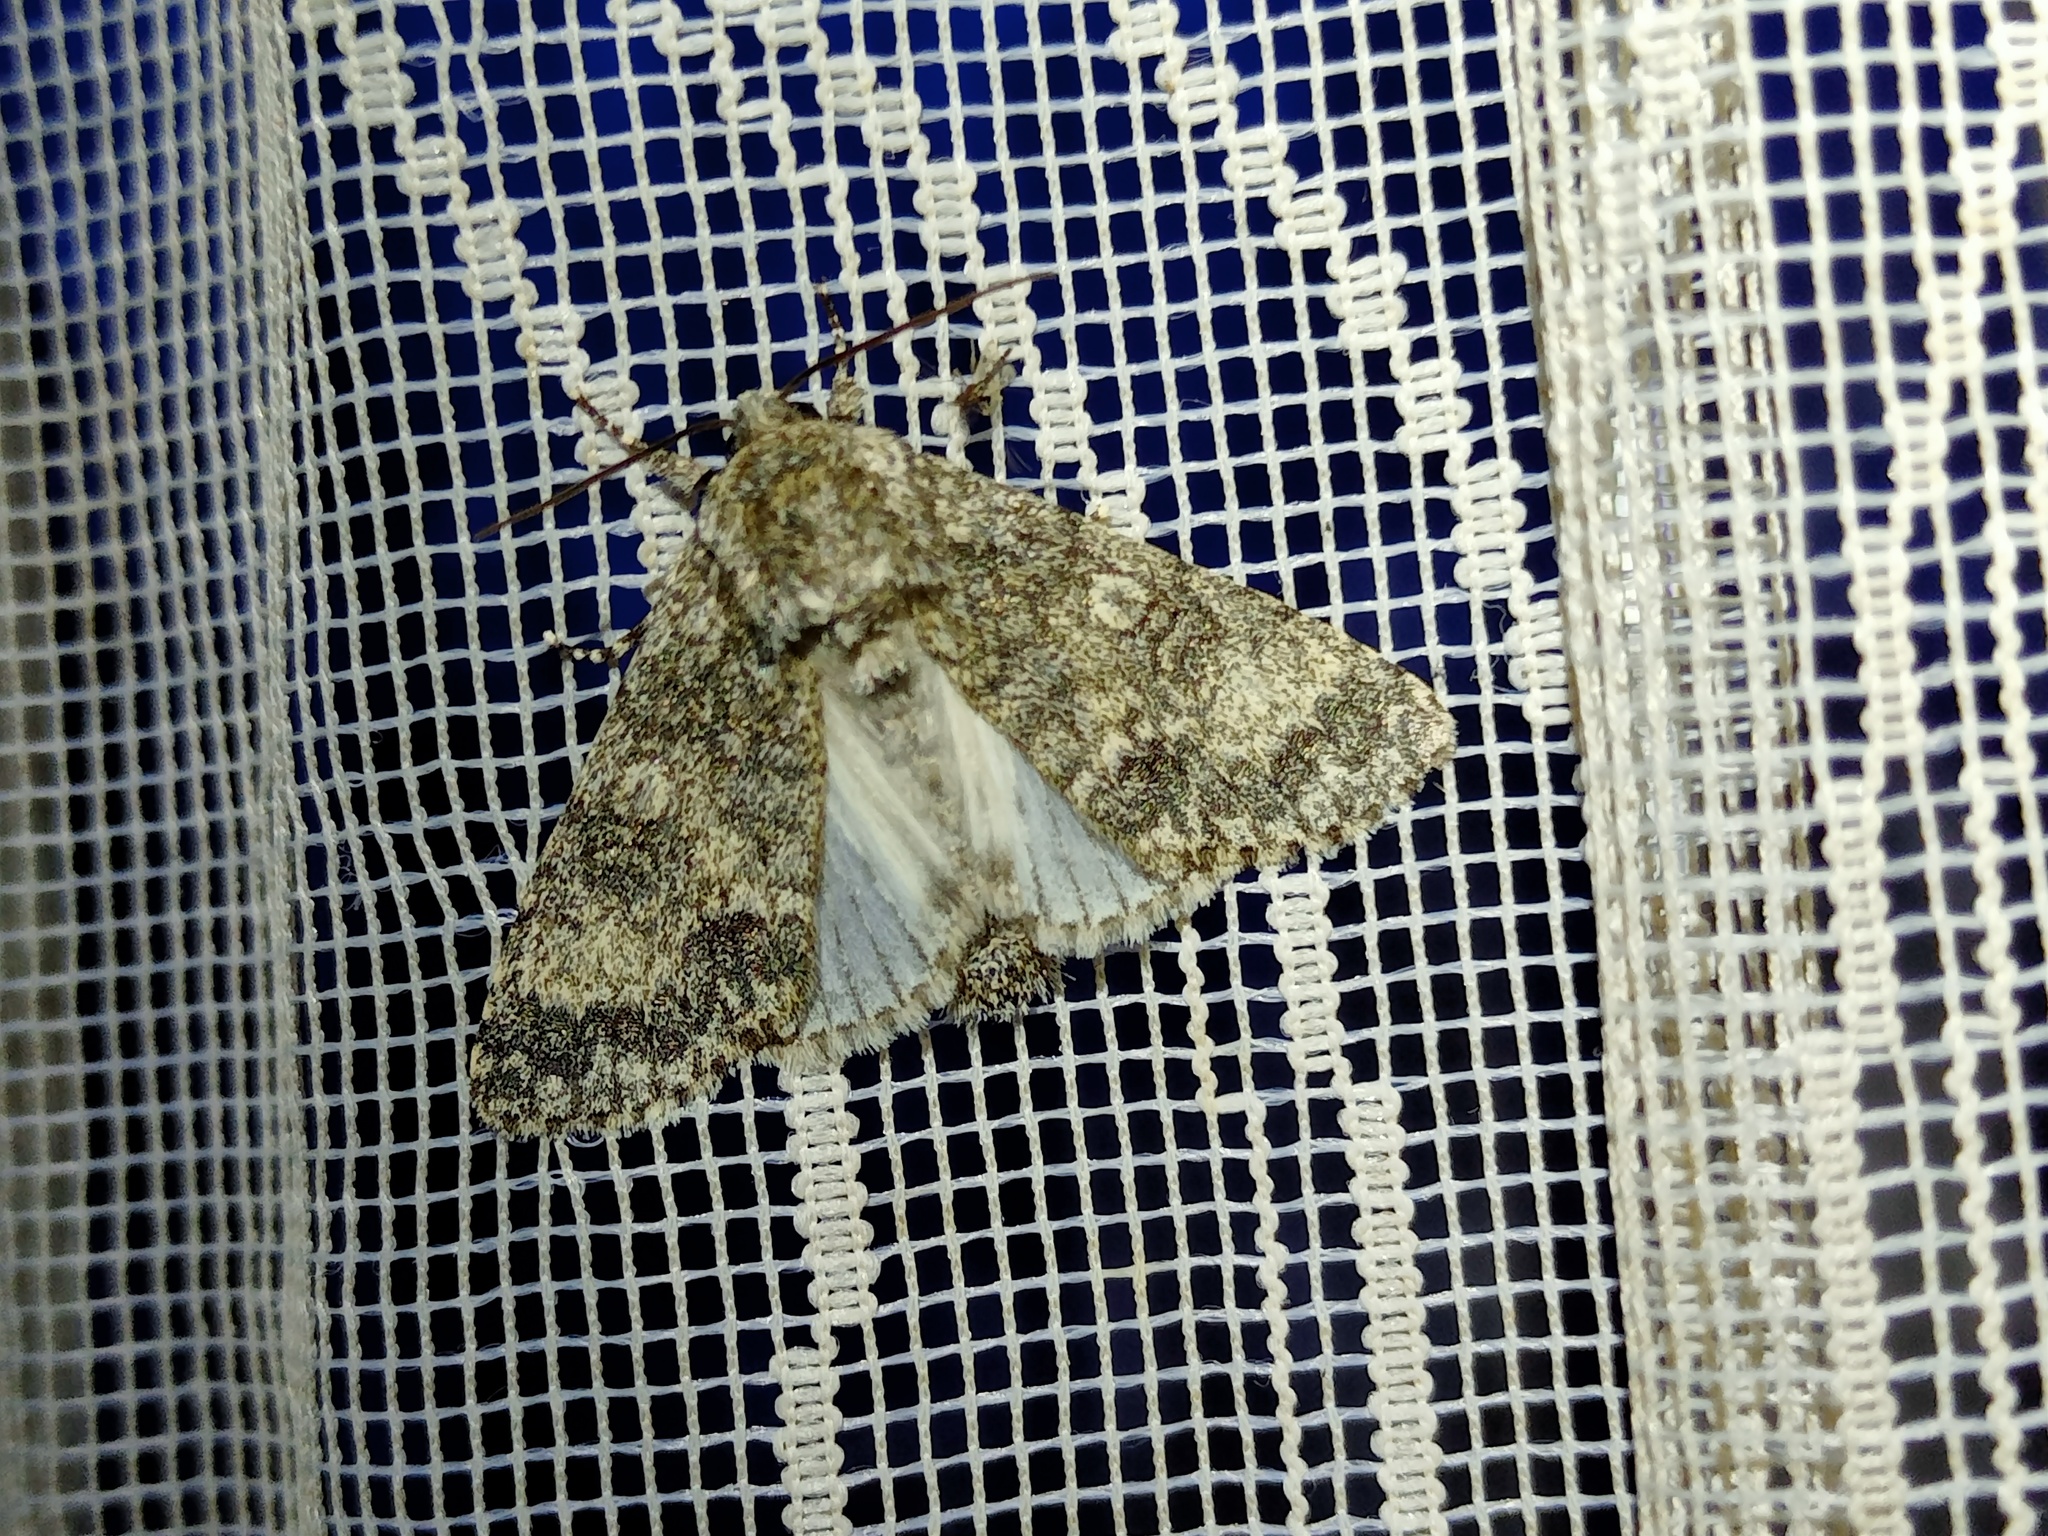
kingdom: Animalia
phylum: Arthropoda
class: Insecta
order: Lepidoptera
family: Noctuidae
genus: Acronicta
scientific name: Acronicta megacephala
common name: Poplar grey
